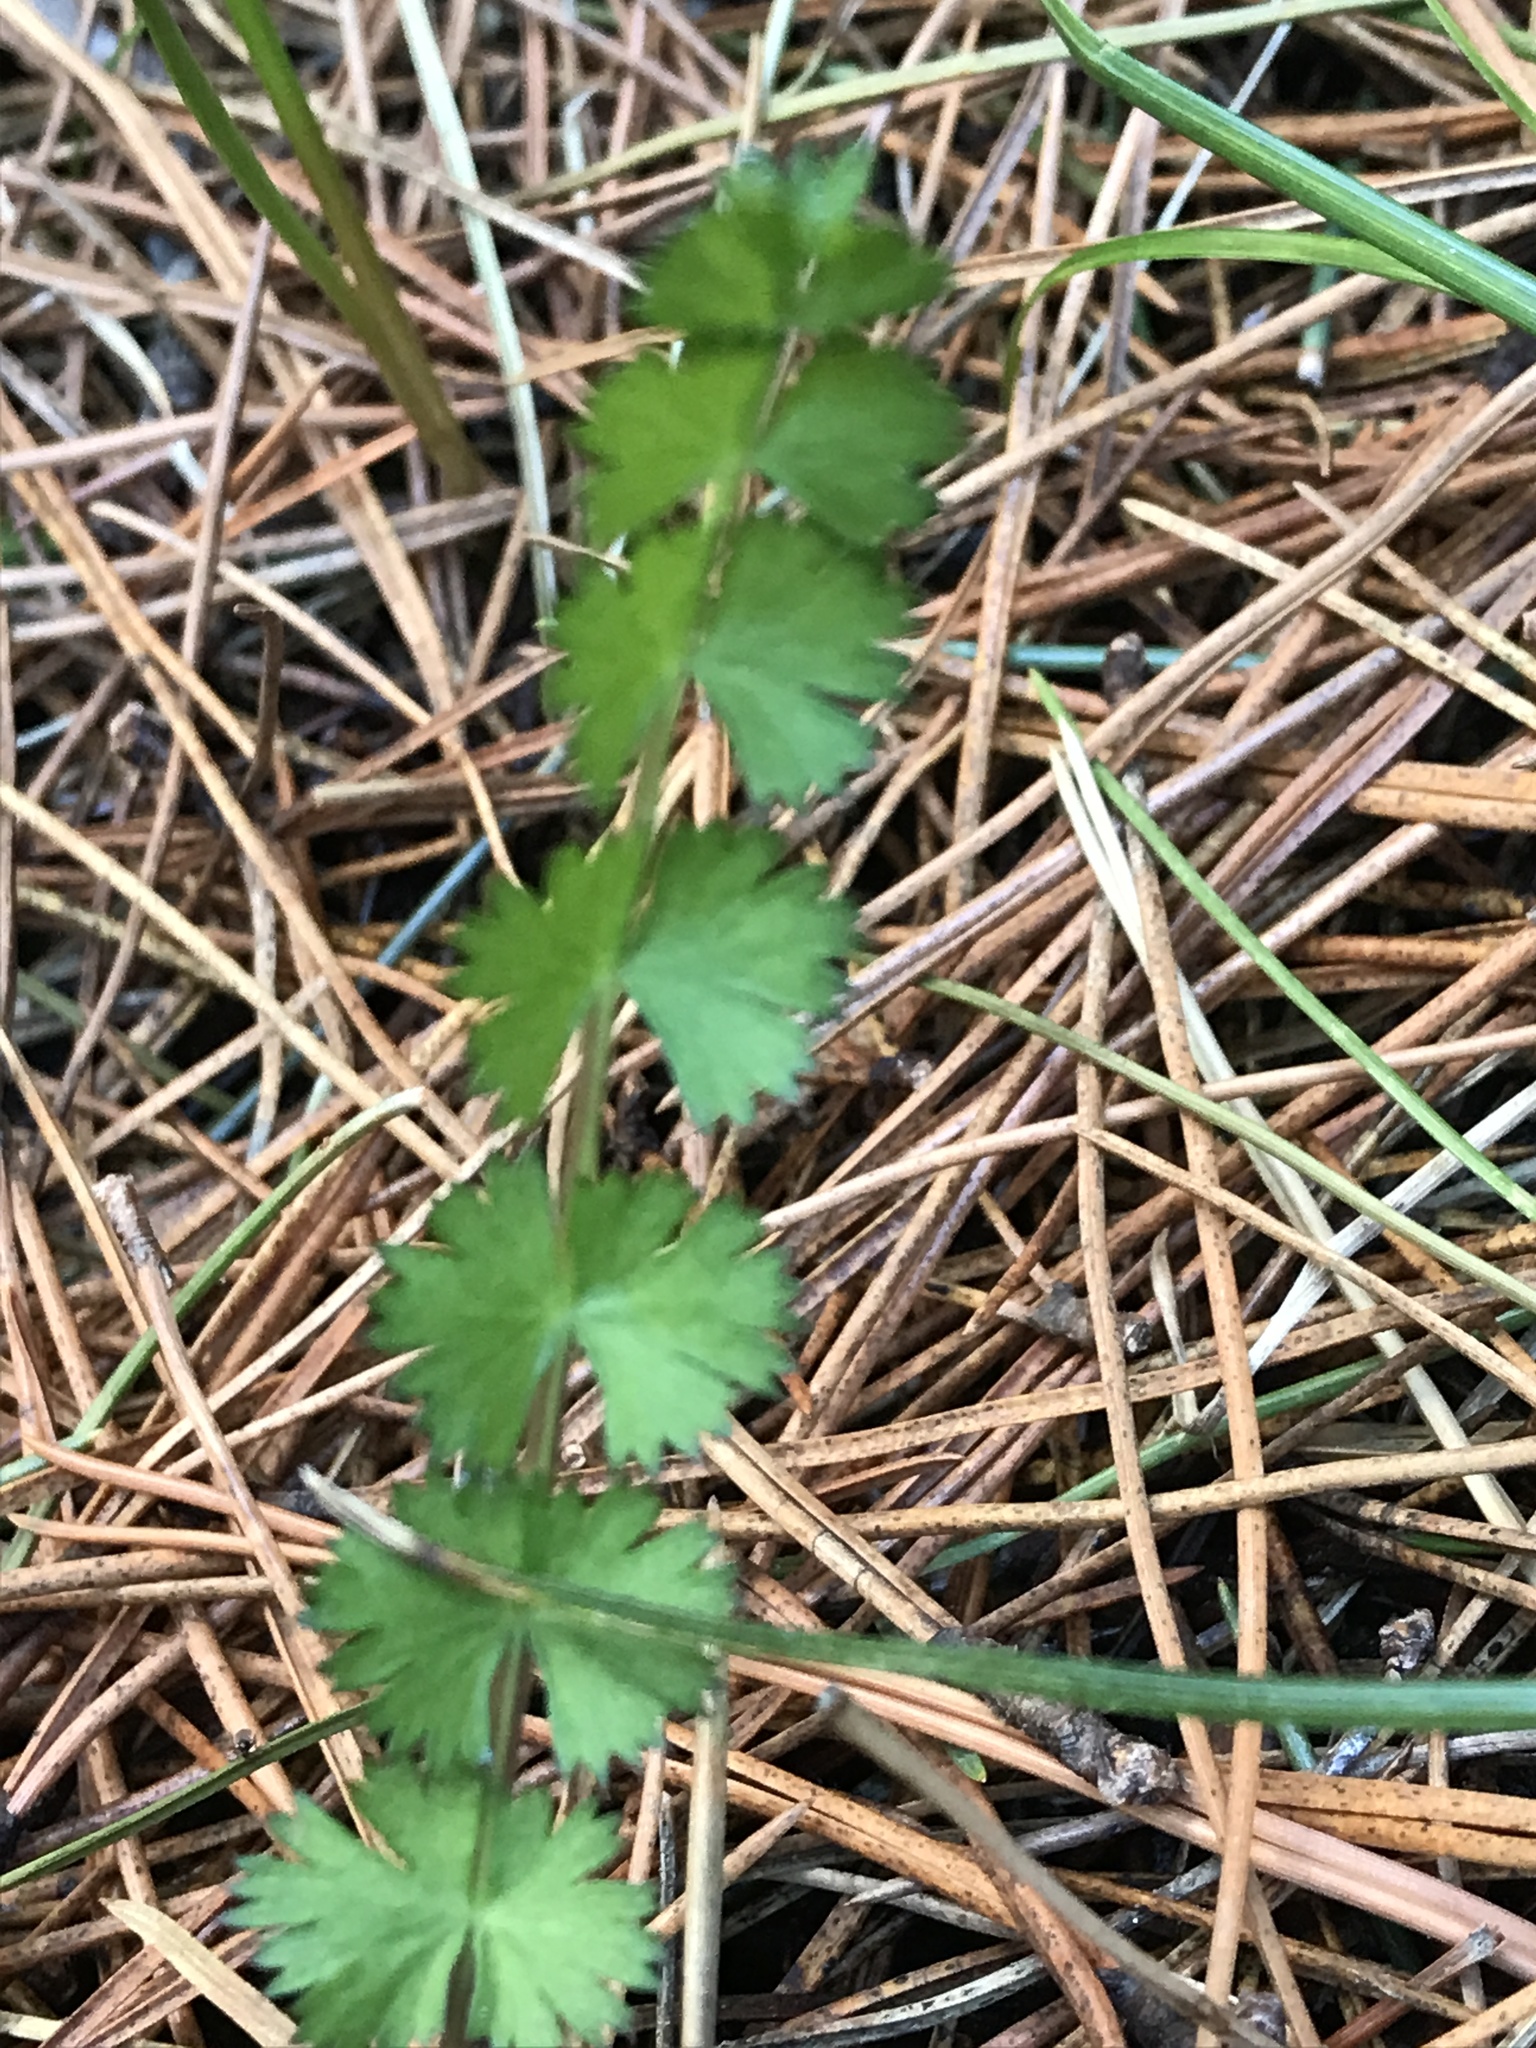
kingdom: Plantae
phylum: Tracheophyta
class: Magnoliopsida
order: Apiales
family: Apiaceae
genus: Anisotome
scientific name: Anisotome aromatica
